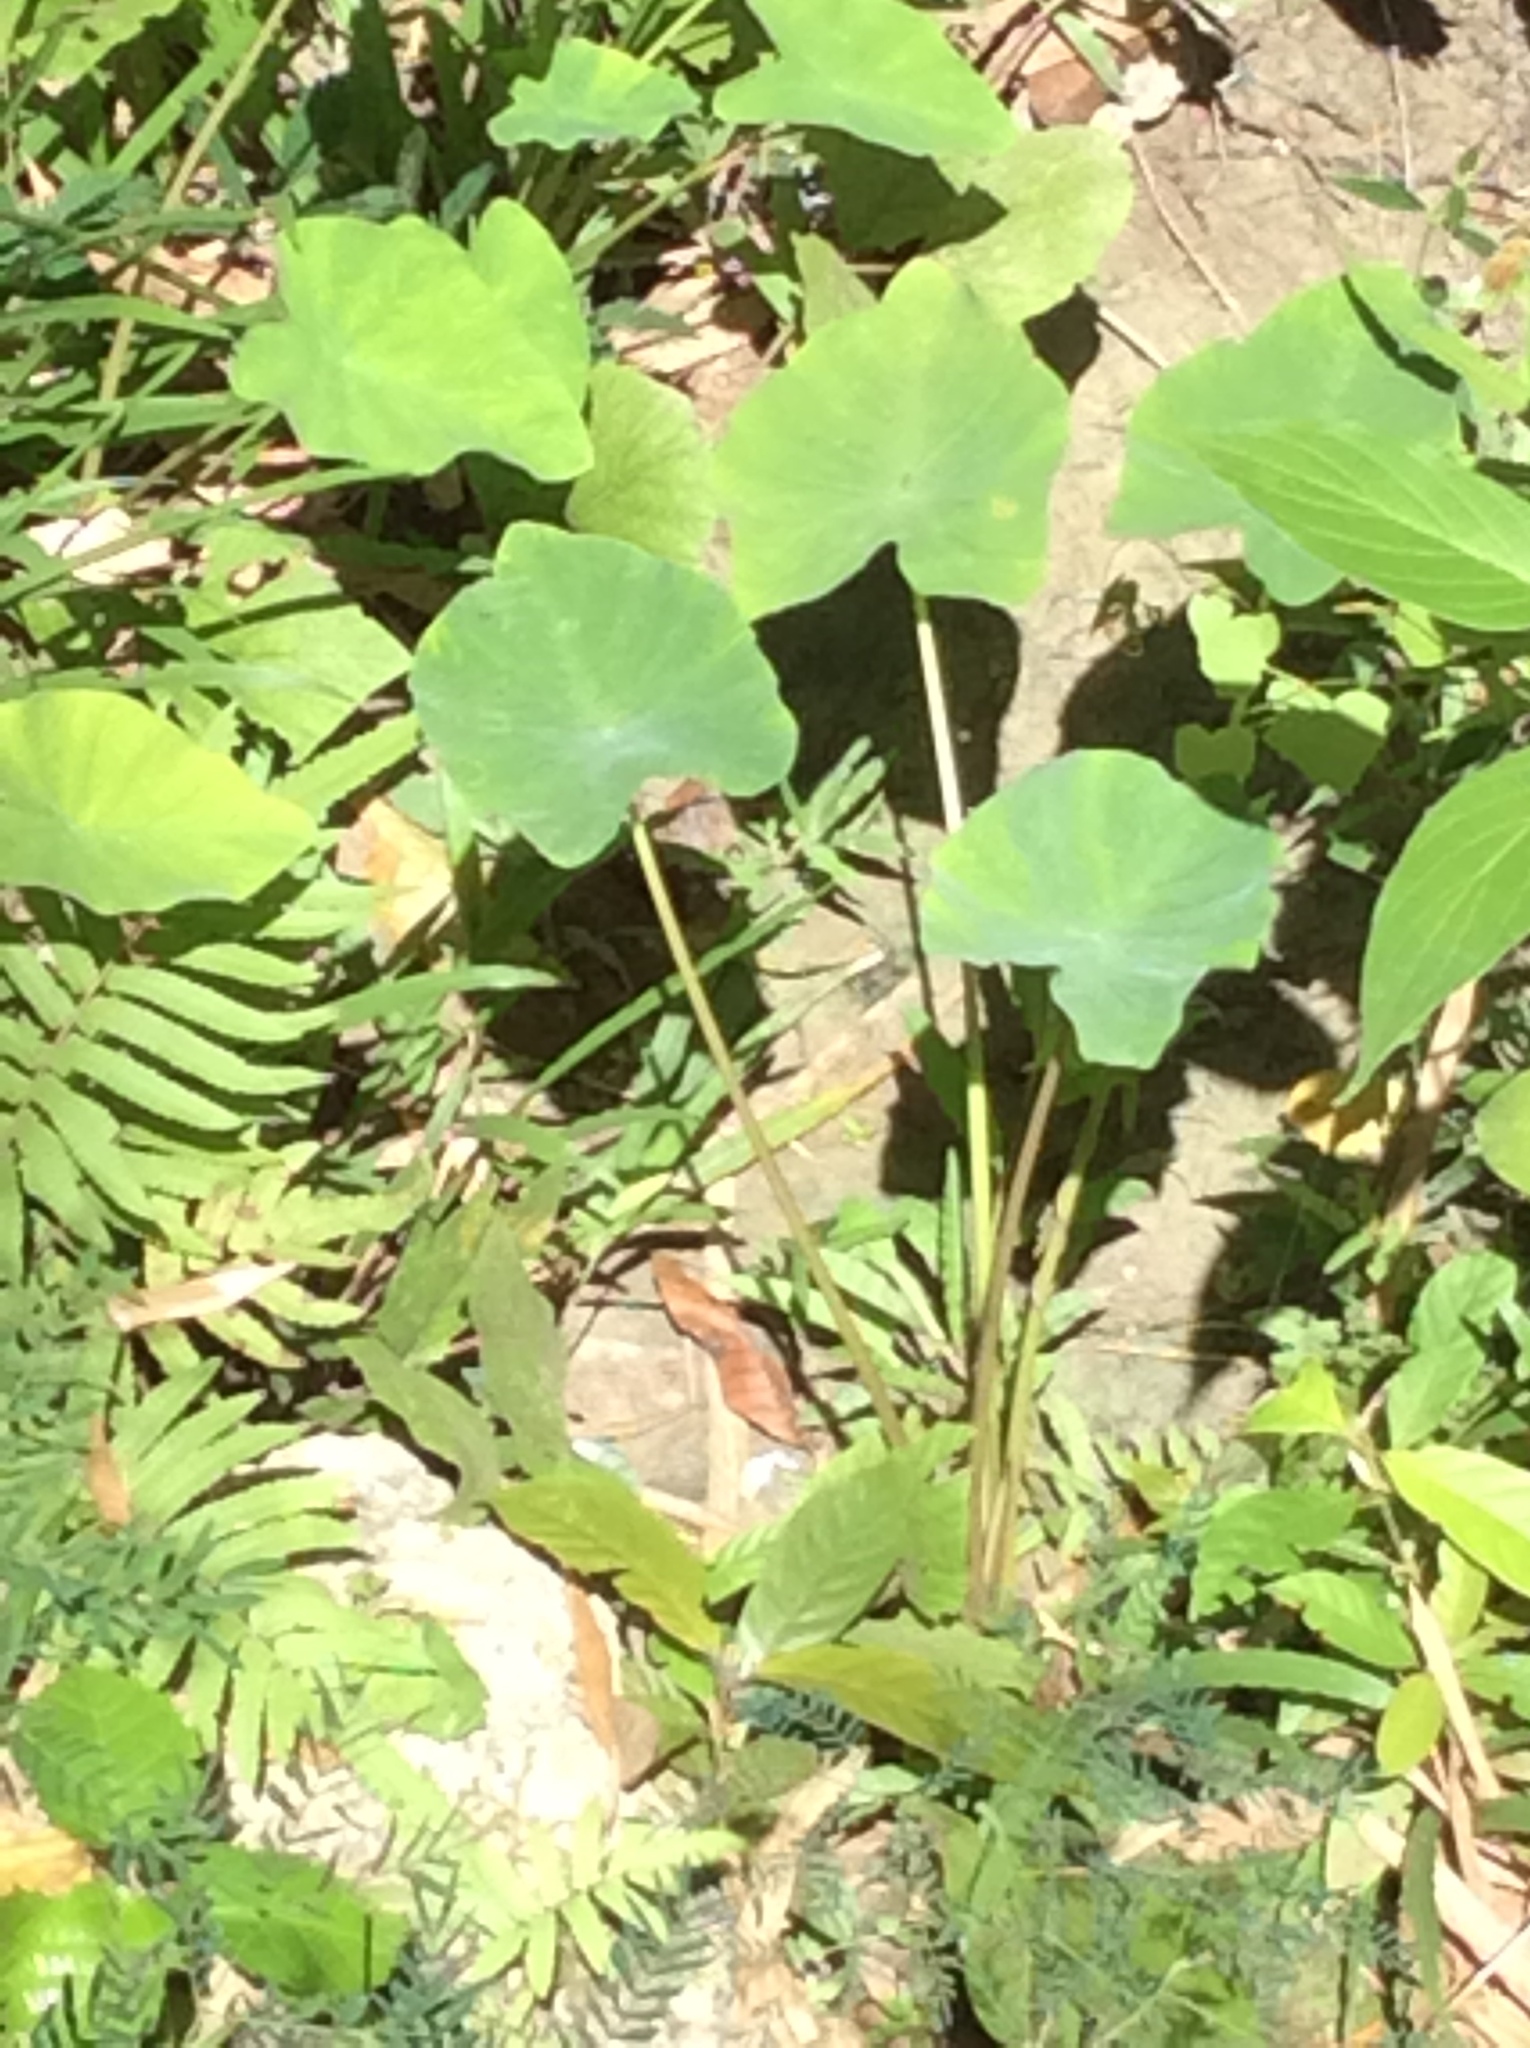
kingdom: Plantae
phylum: Tracheophyta
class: Liliopsida
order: Alismatales
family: Araceae
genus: Colocasia
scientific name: Colocasia esculenta
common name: Taro
